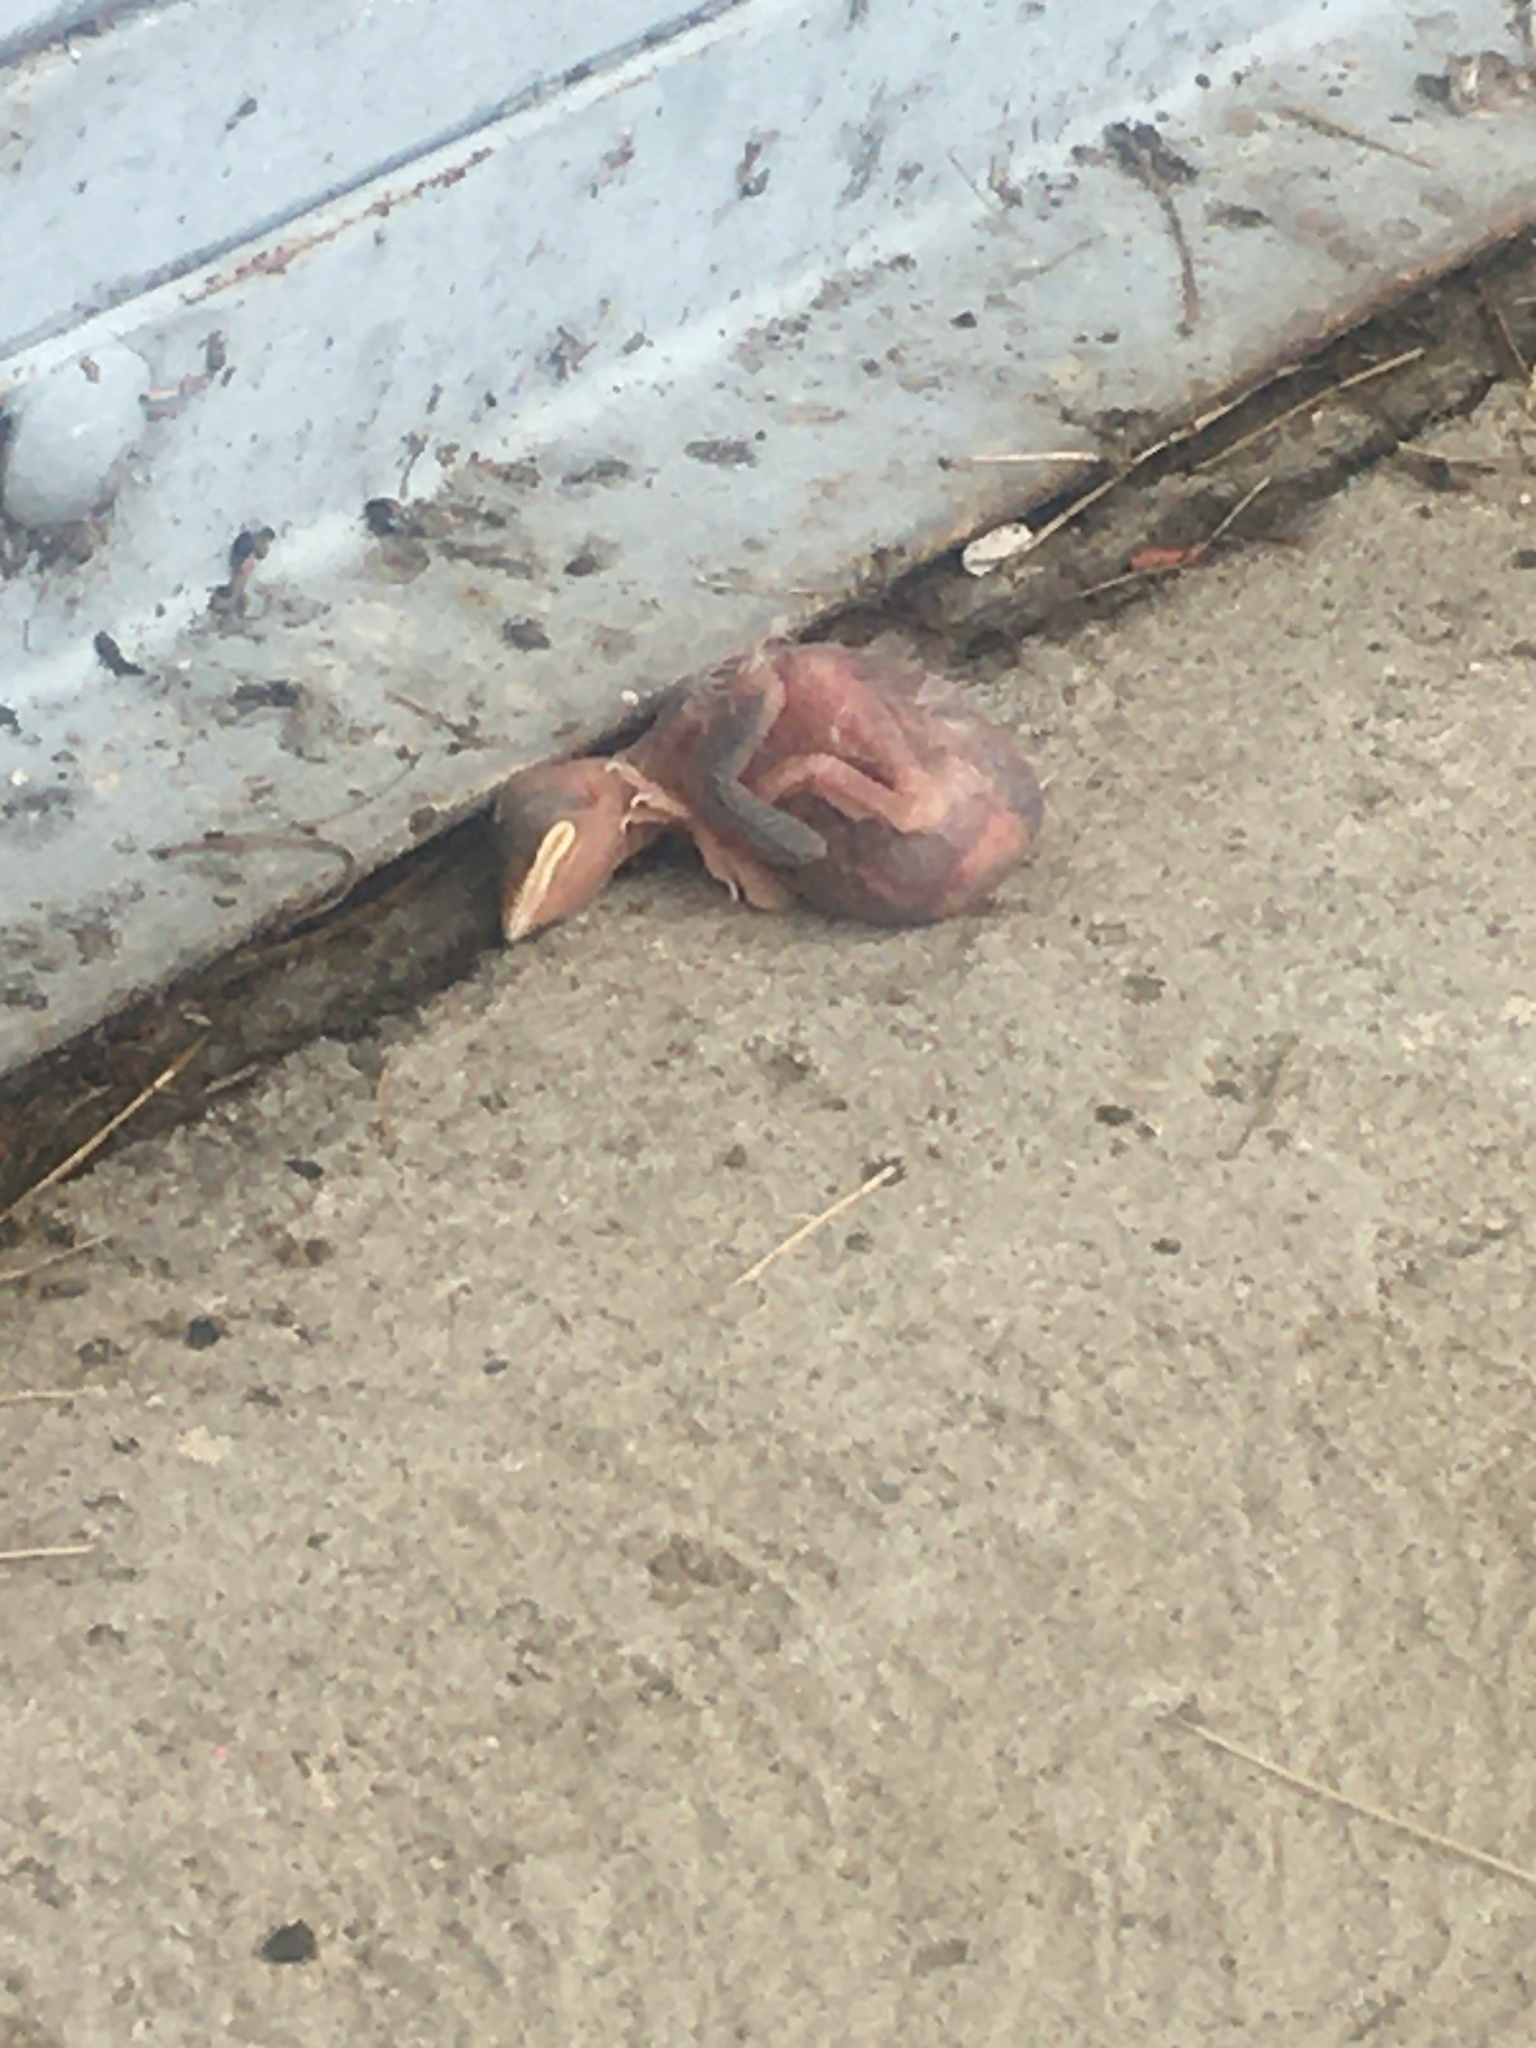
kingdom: Animalia
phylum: Chordata
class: Aves
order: Passeriformes
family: Hirundinidae
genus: Petrochelidon
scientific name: Petrochelidon pyrrhonota
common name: American cliff swallow
